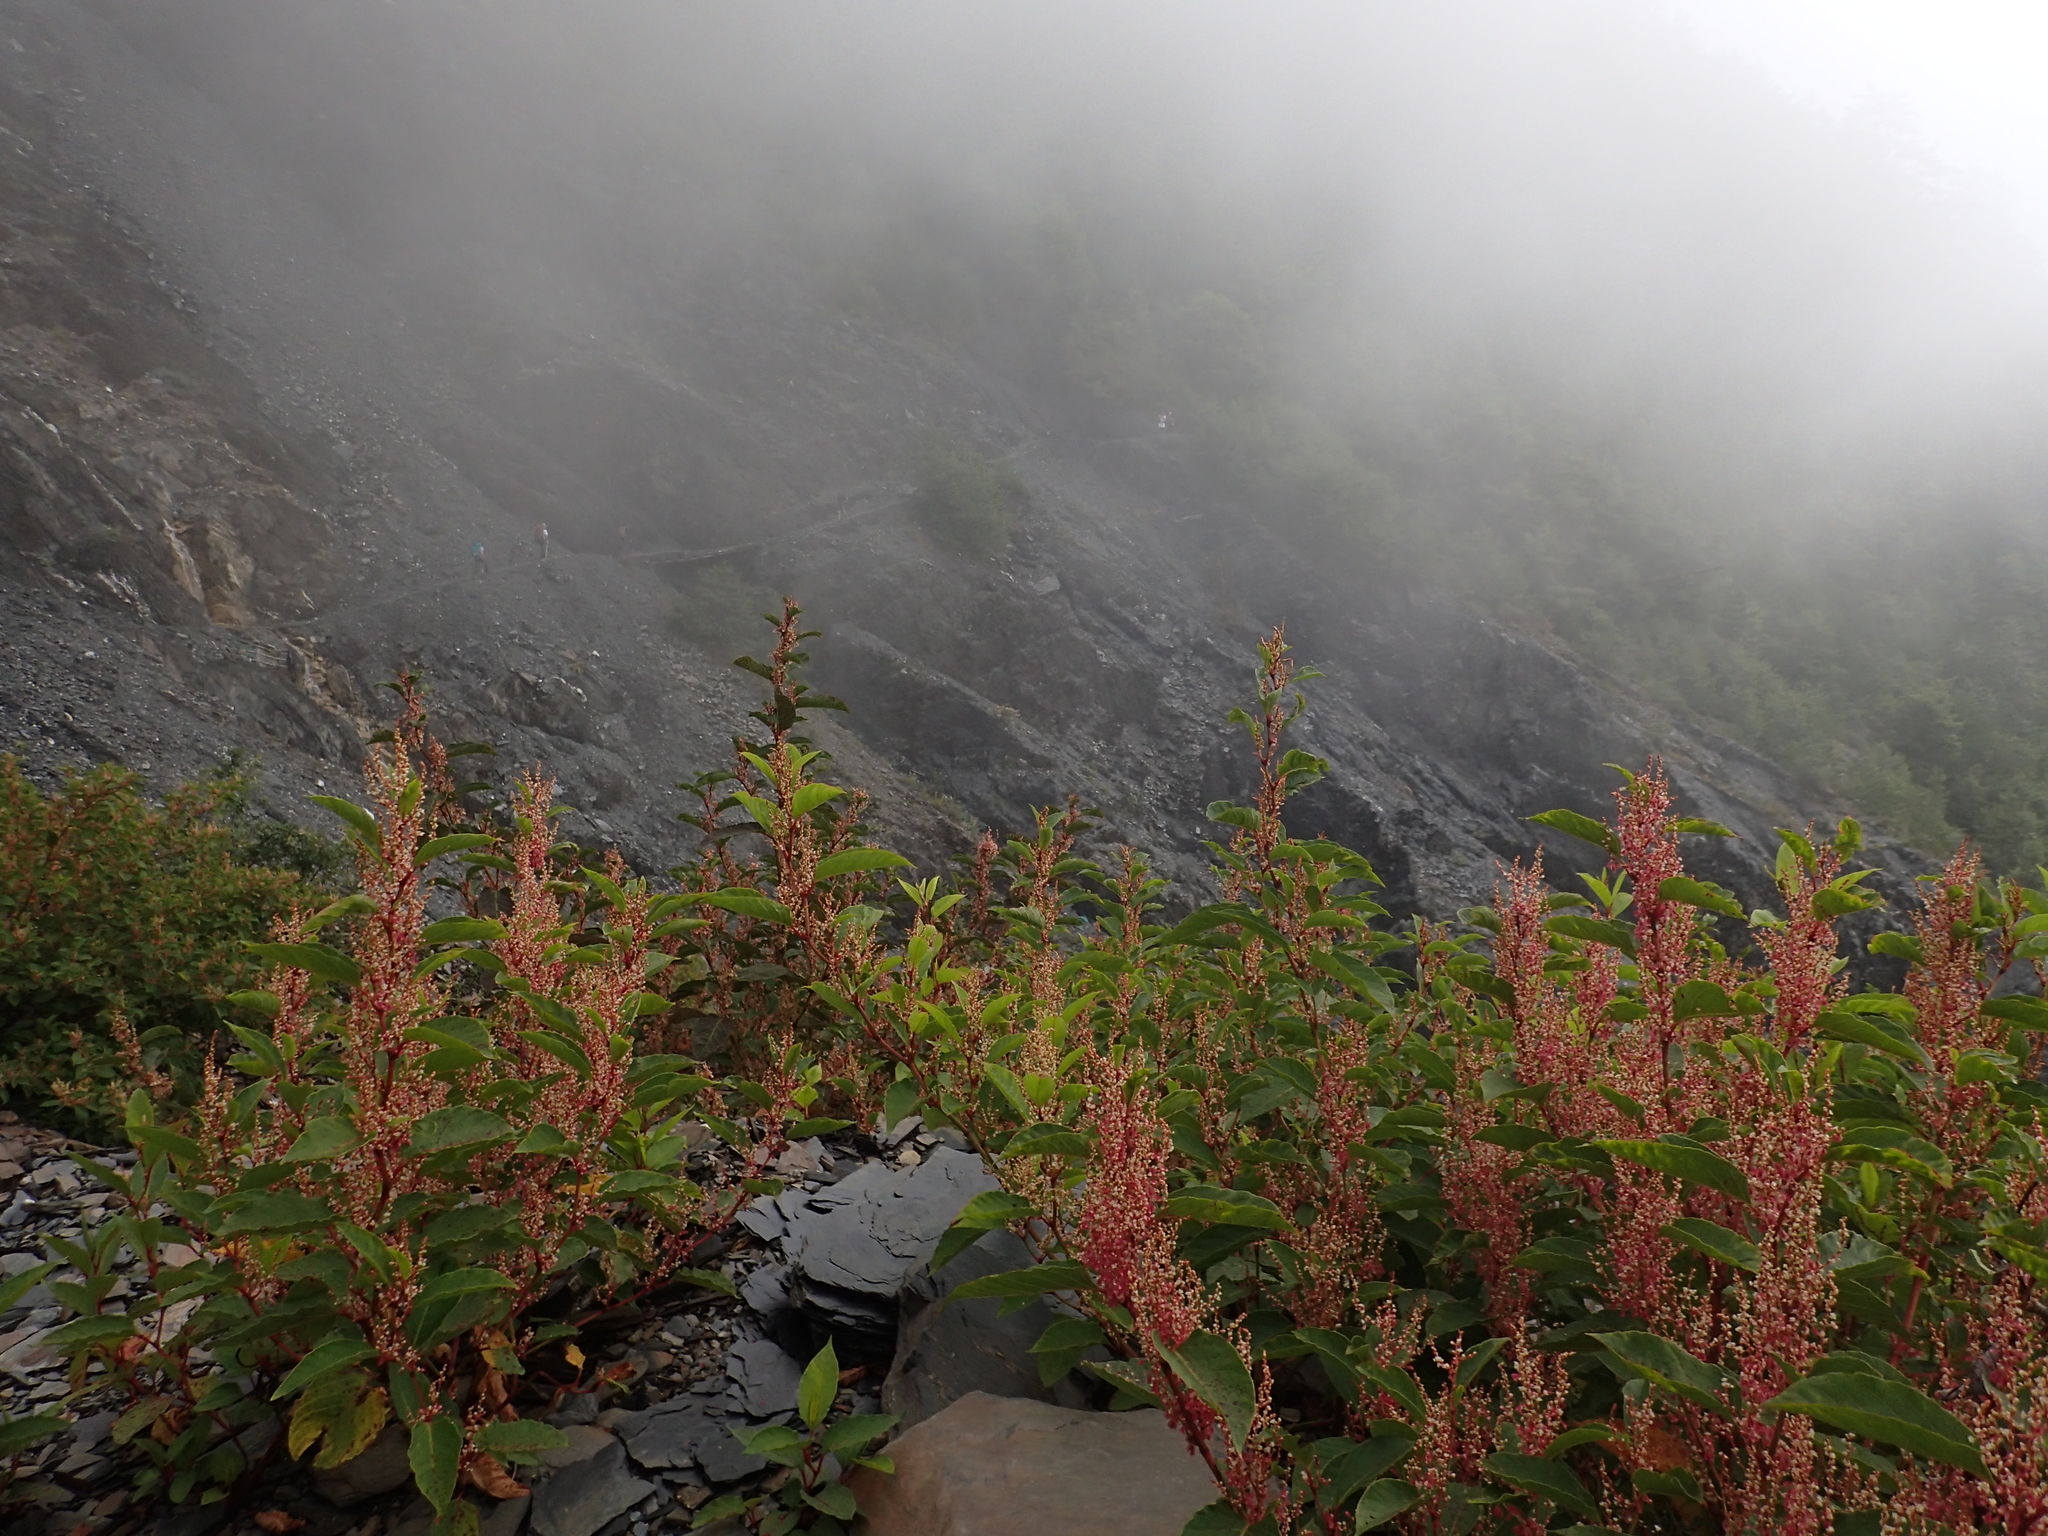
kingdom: Plantae
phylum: Tracheophyta
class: Magnoliopsida
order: Caryophyllales
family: Polygonaceae
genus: Reynoutria
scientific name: Reynoutria japonica
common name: Japanese knotweed
